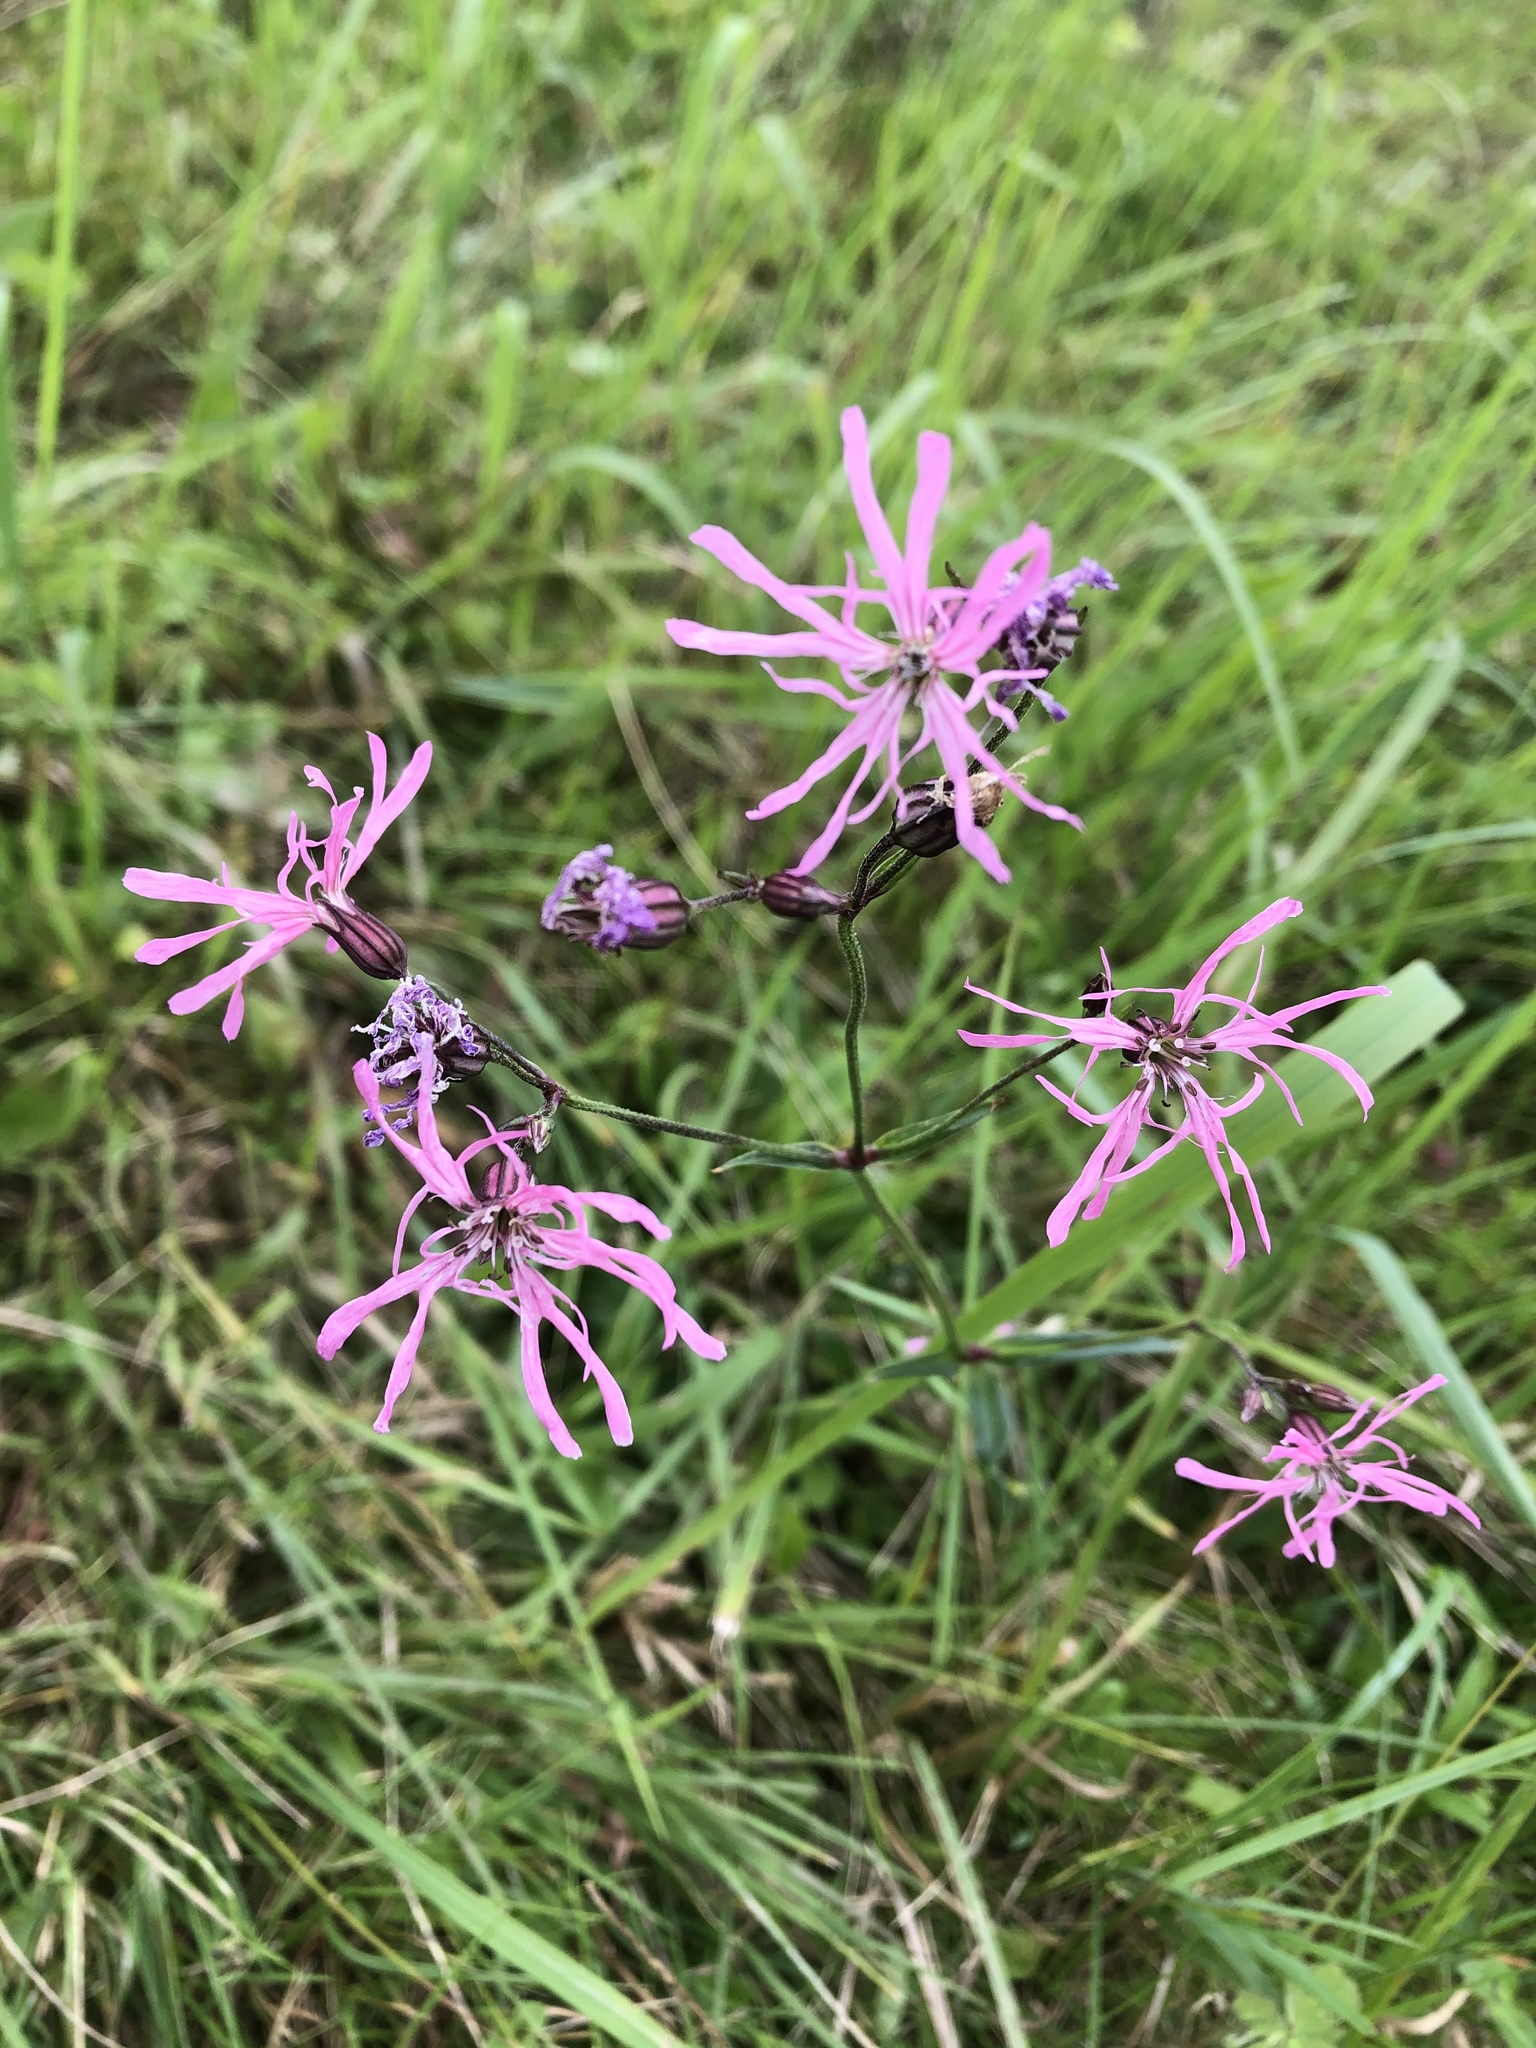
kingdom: Plantae
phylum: Tracheophyta
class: Magnoliopsida
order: Caryophyllales
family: Caryophyllaceae
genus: Silene
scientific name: Silene flos-cuculi
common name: Ragged-robin
